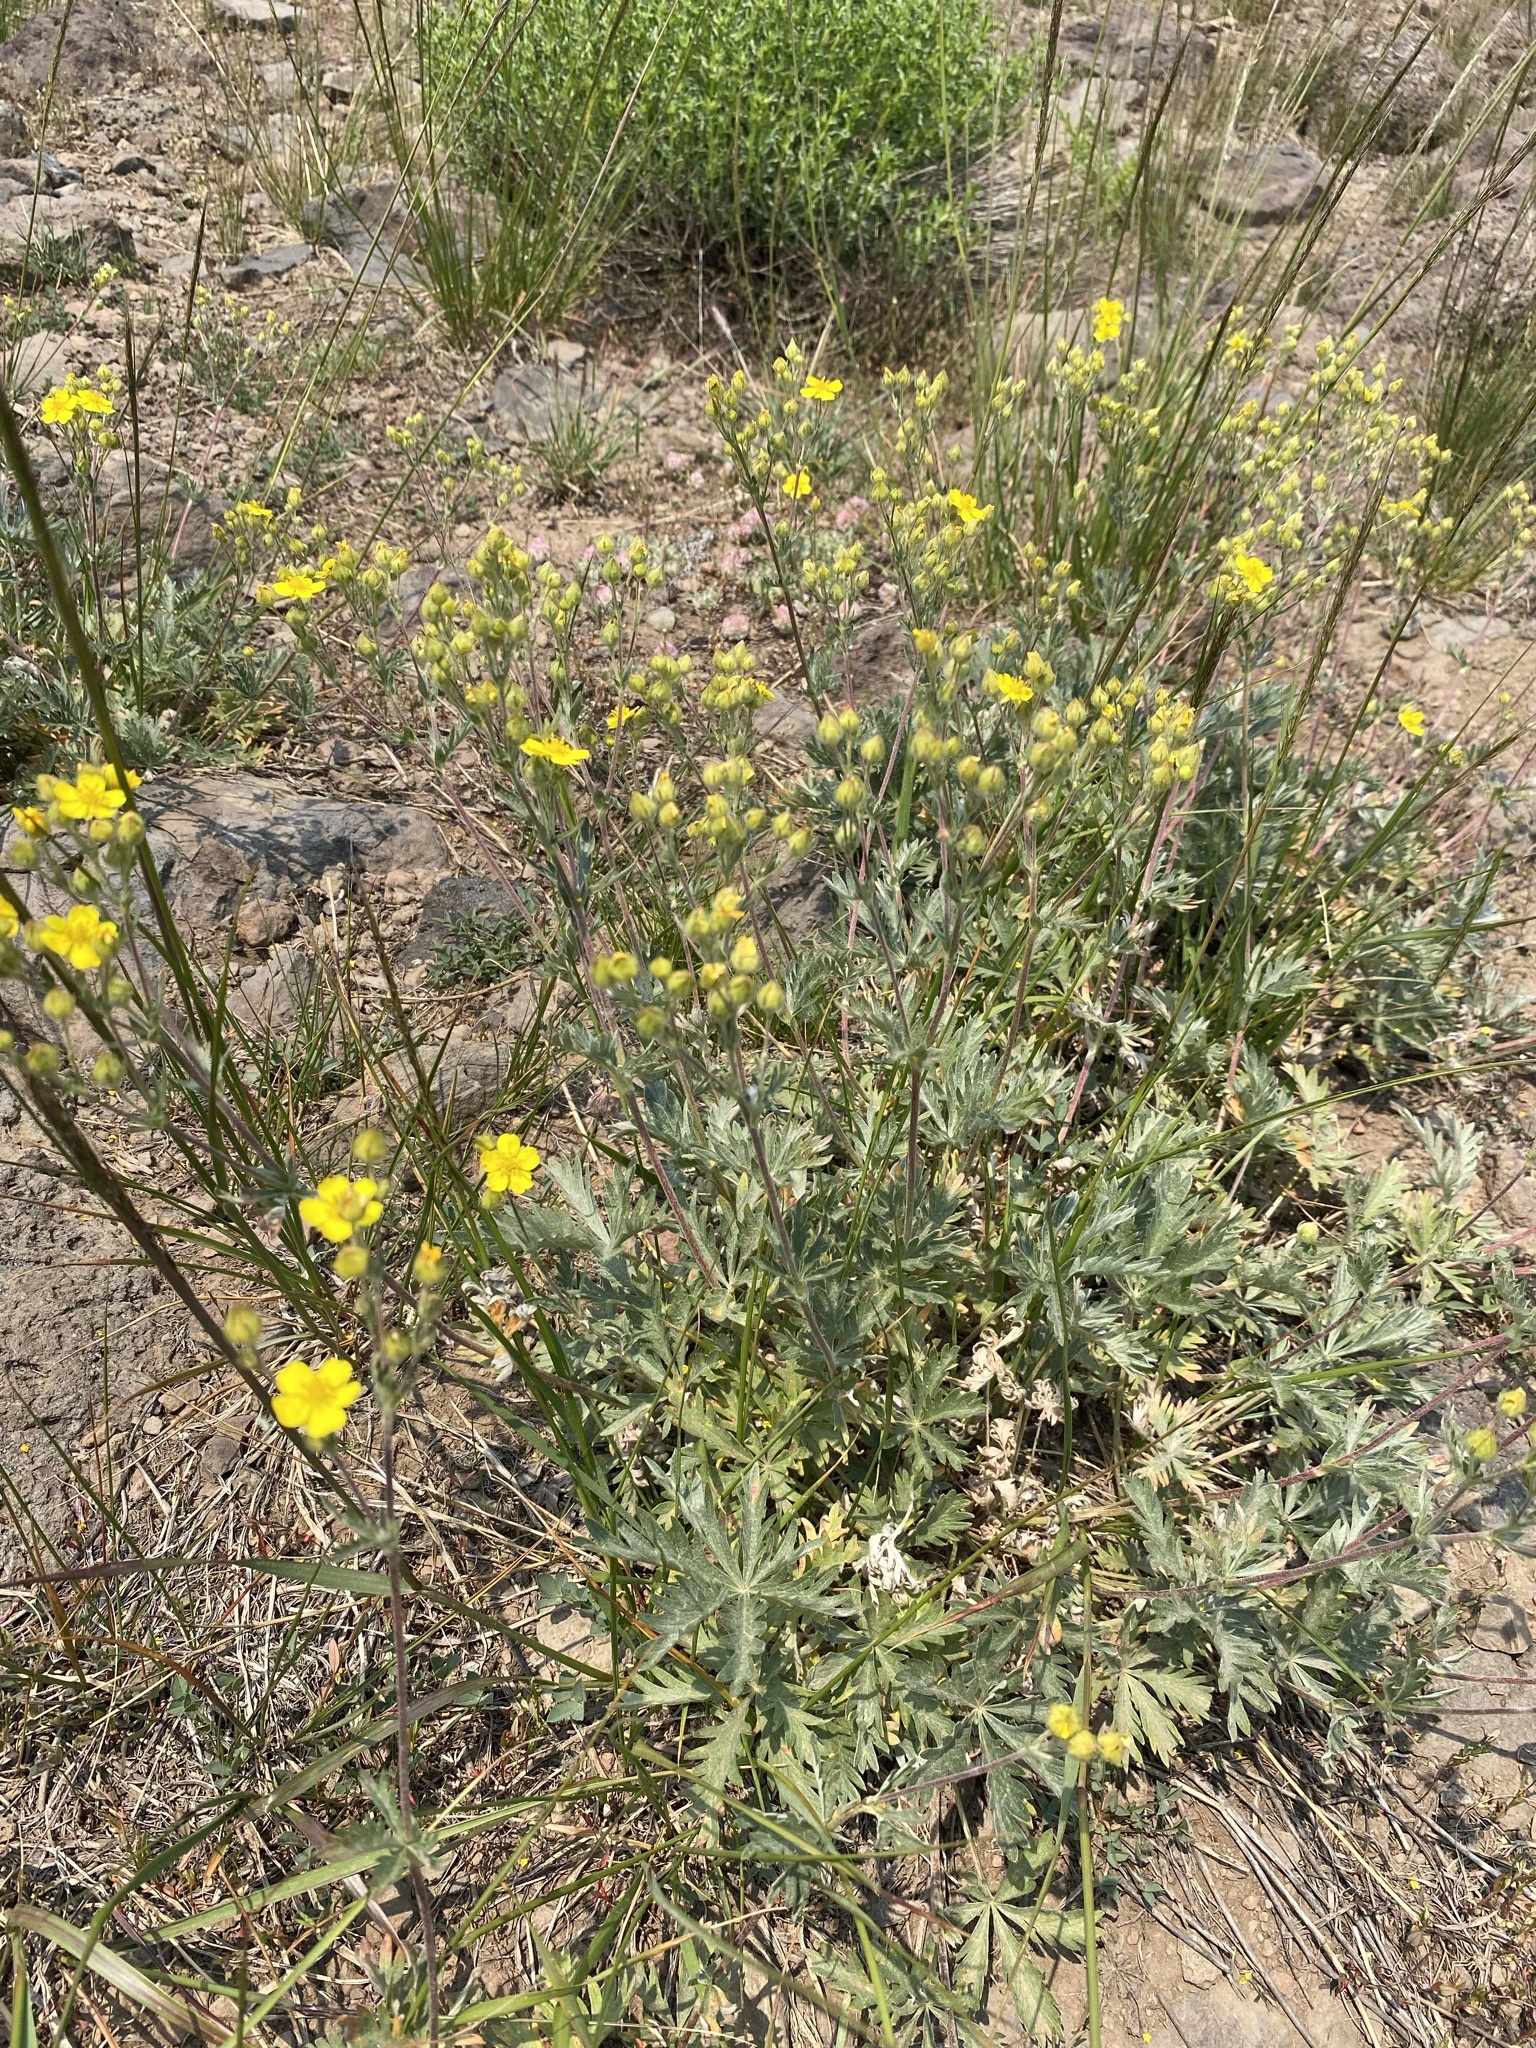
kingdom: Plantae
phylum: Tracheophyta
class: Magnoliopsida
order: Rosales
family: Rosaceae
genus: Potentilla
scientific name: Potentilla gracilis
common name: Graceful cinquefoil
